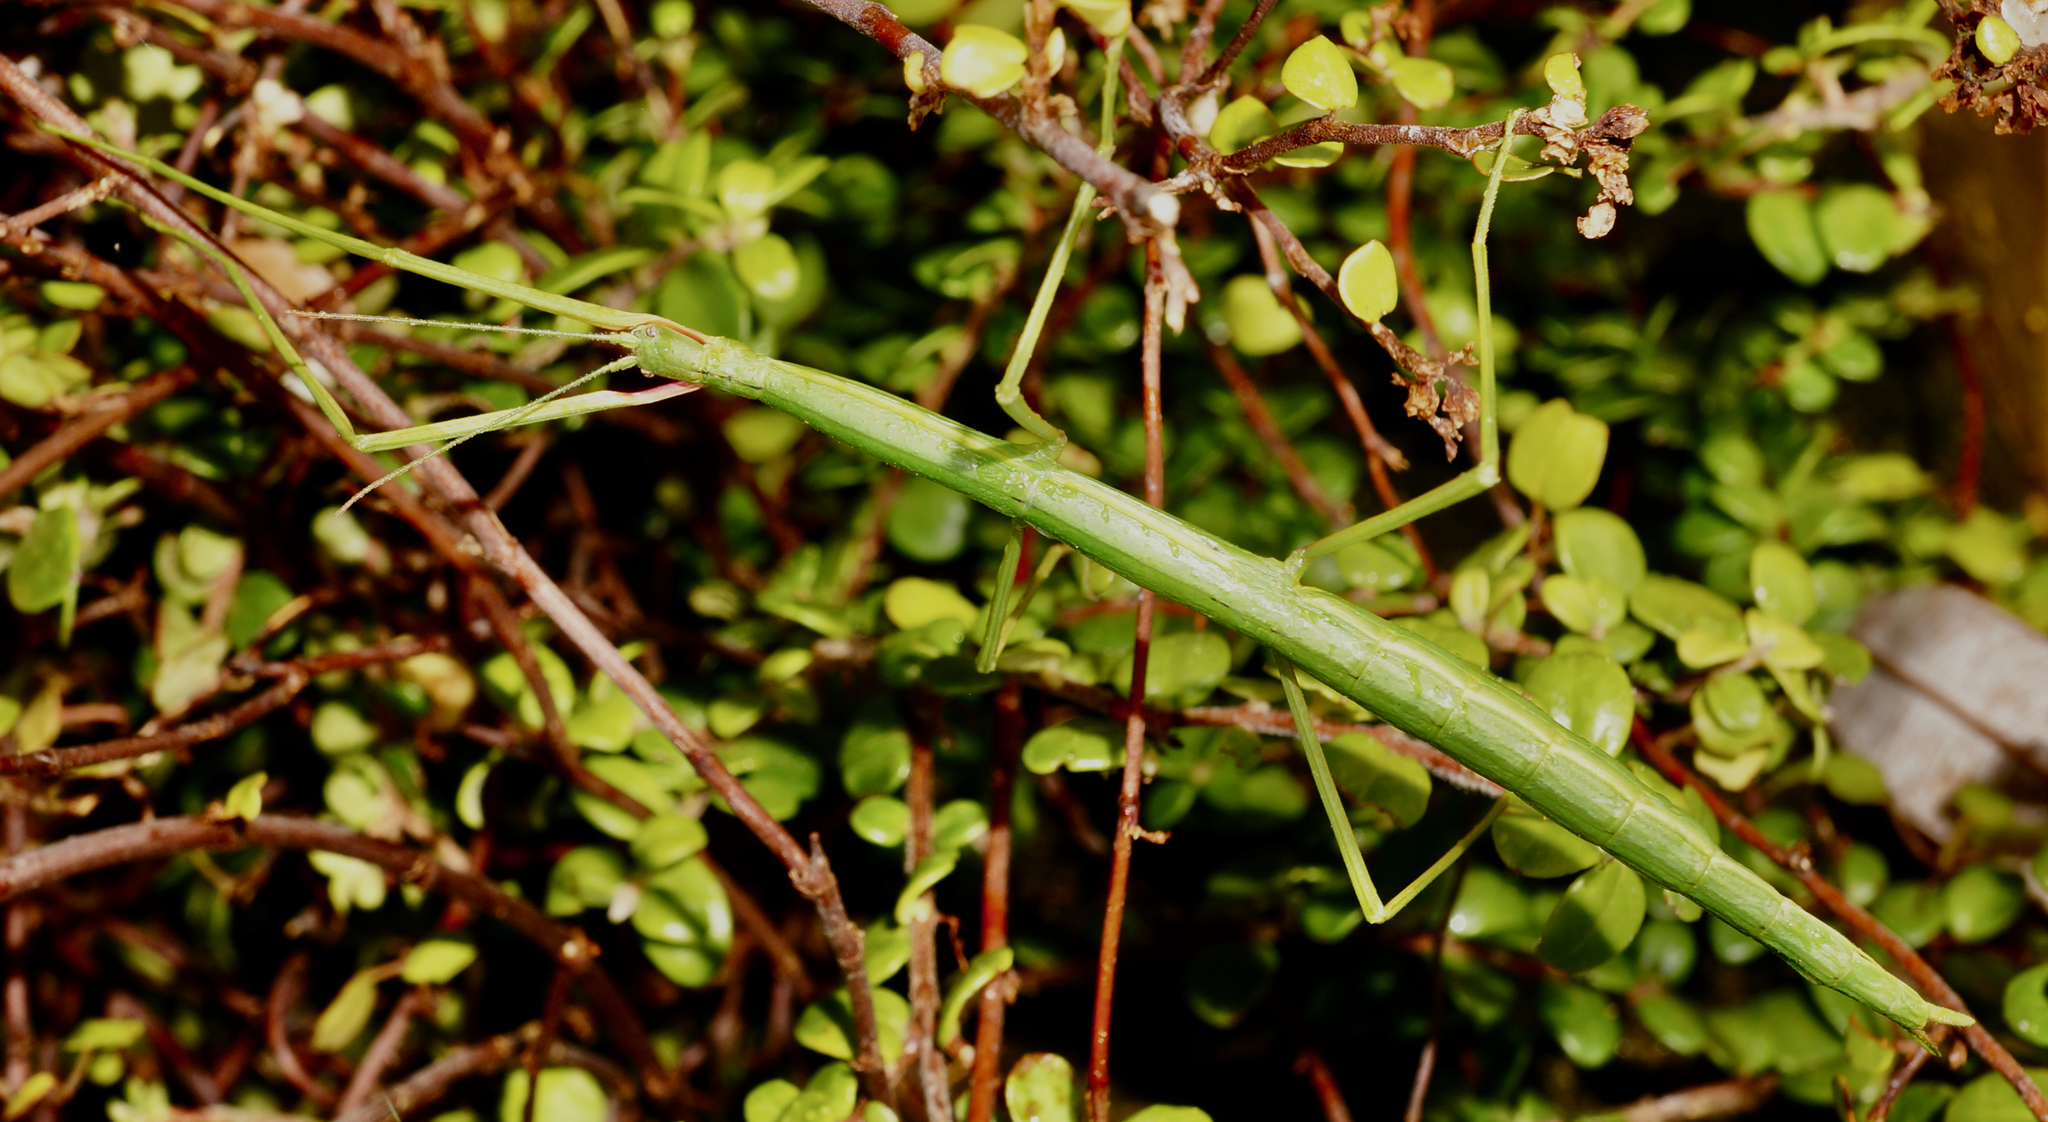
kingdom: Animalia
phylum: Arthropoda
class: Insecta
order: Phasmida
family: Phasmatidae
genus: Clitarchus
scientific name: Clitarchus hookeri
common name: Smooth stick insect
